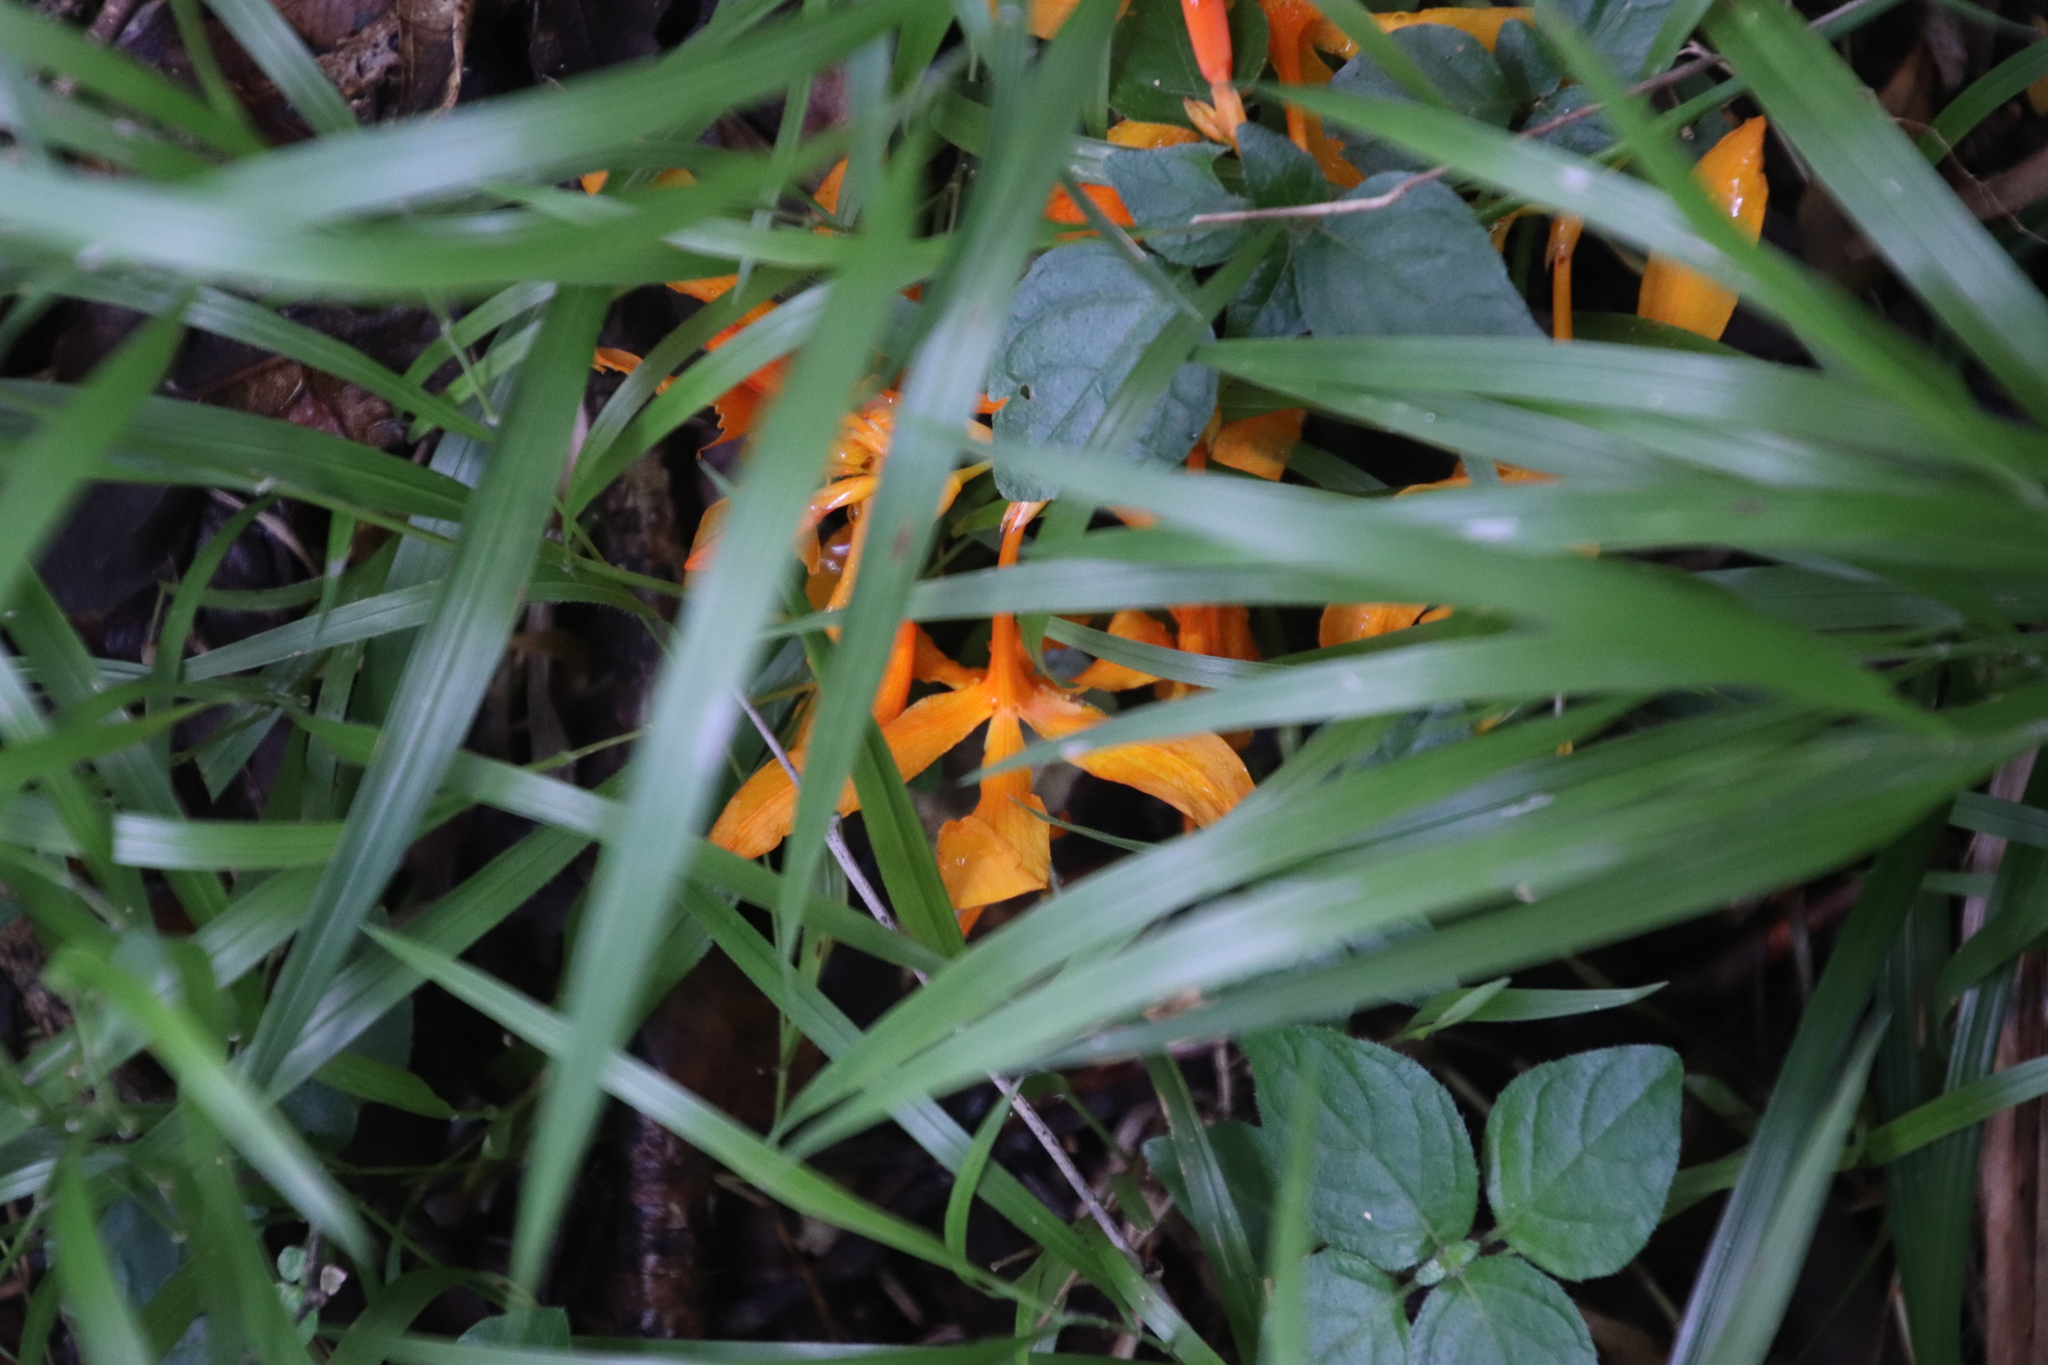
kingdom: Plantae
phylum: Tracheophyta
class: Liliopsida
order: Asparagales
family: Iridaceae
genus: Crocosmia
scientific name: Crocosmia aurea
